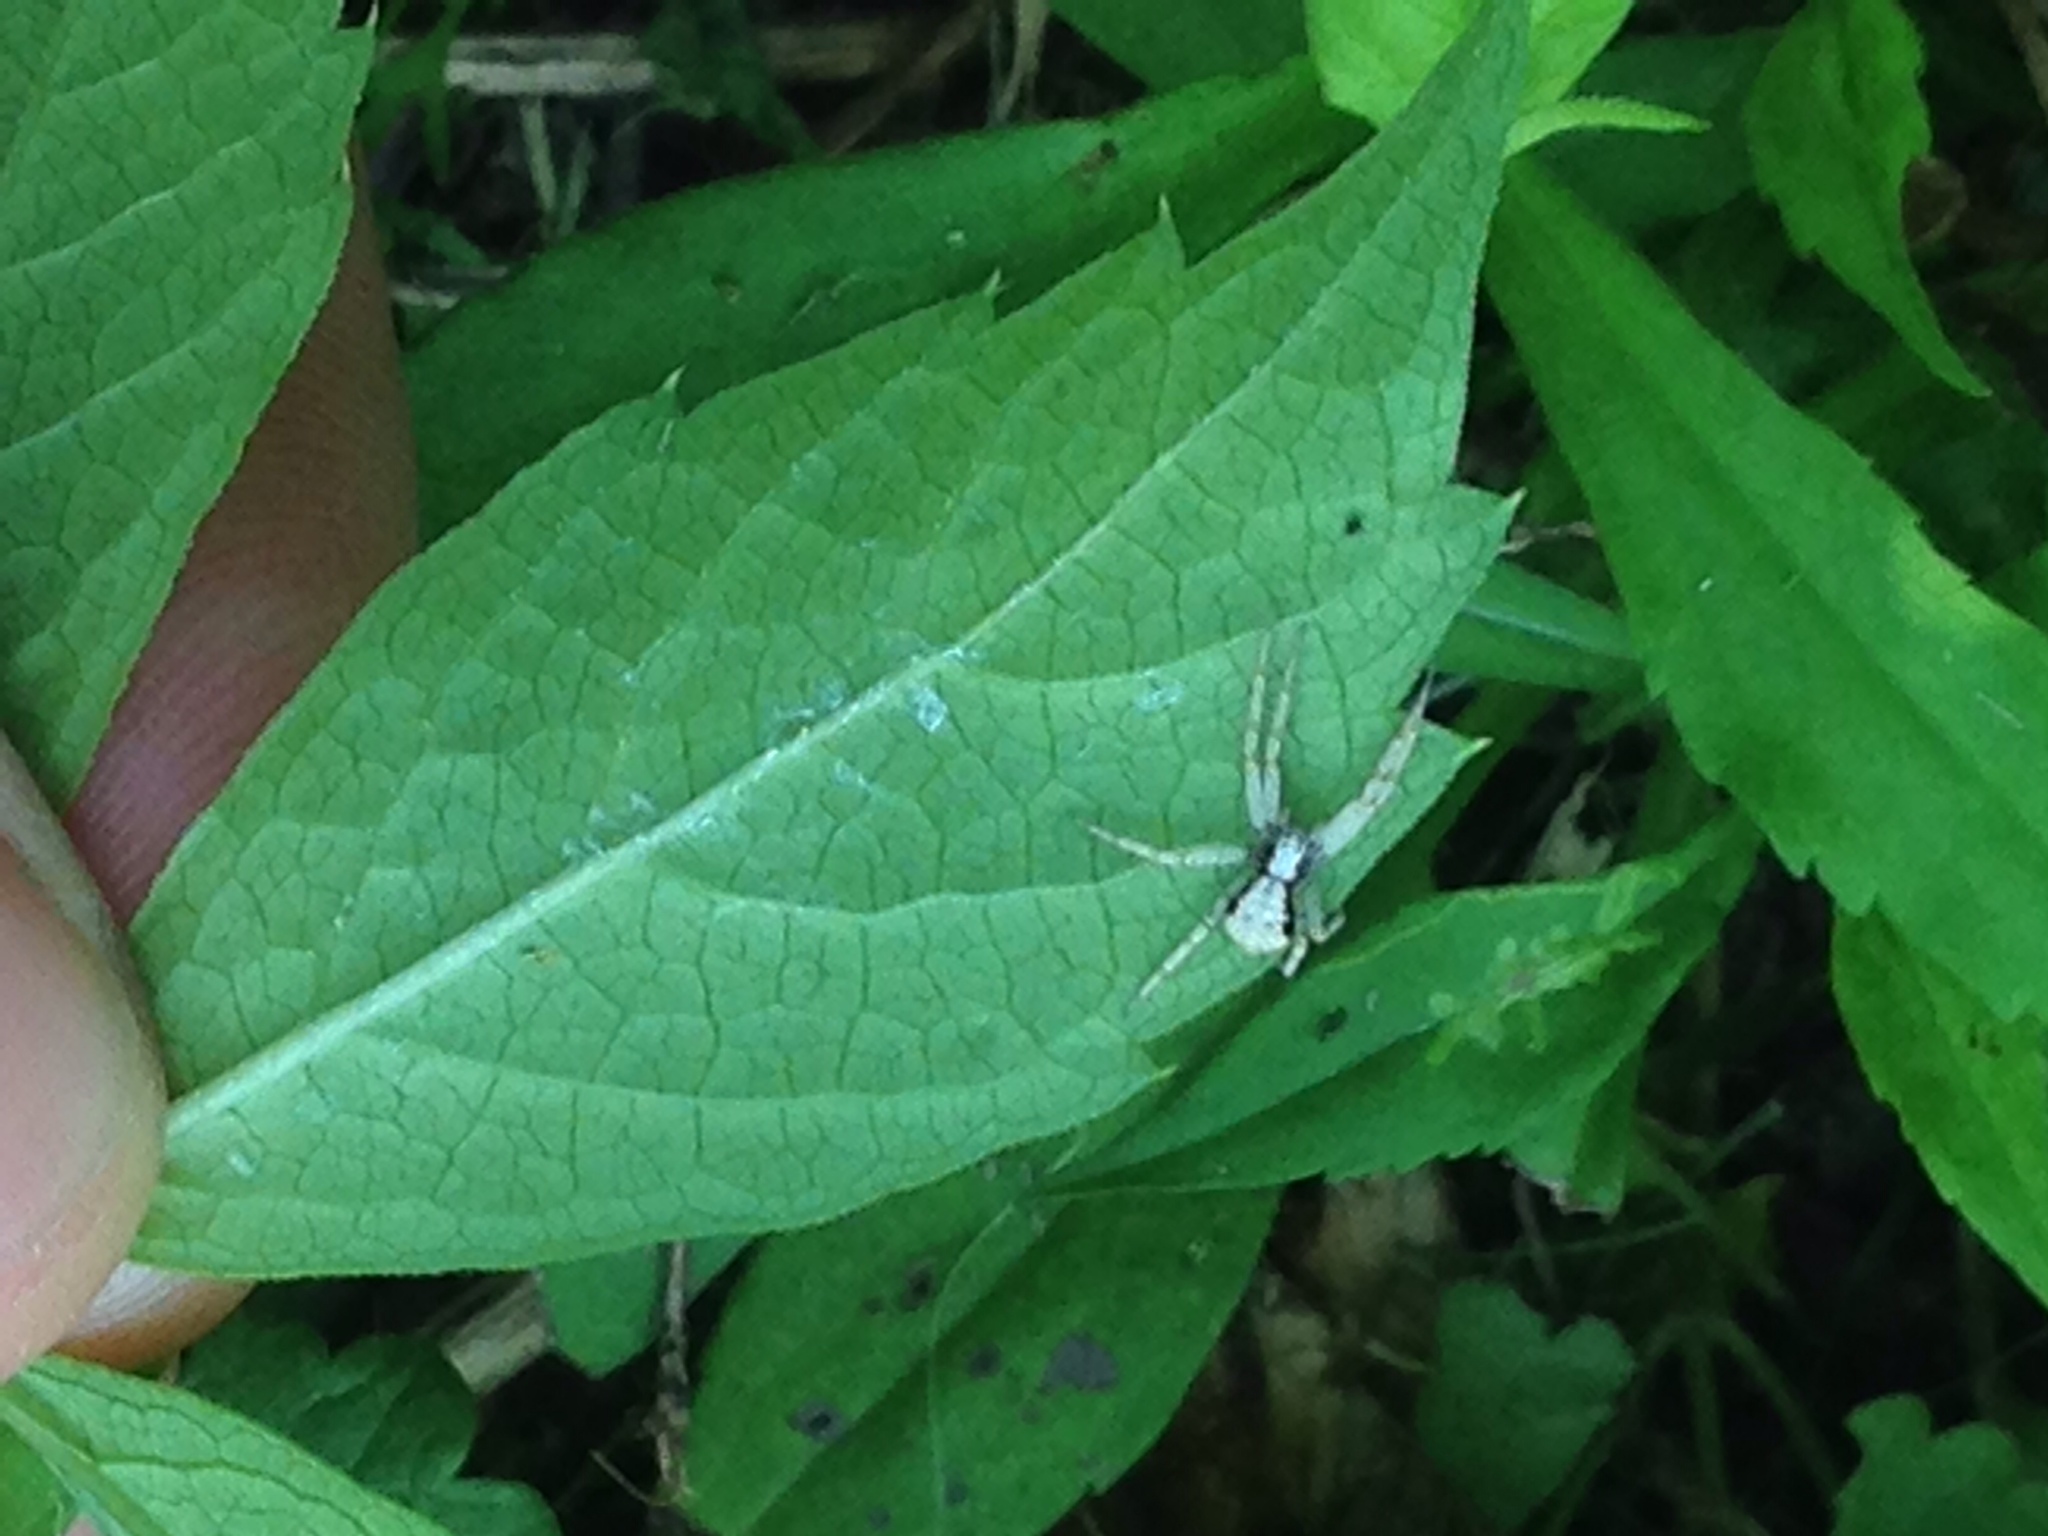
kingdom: Animalia
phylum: Arthropoda
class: Arachnida
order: Araneae
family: Philodromidae
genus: Philodromus
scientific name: Philodromus marxi
